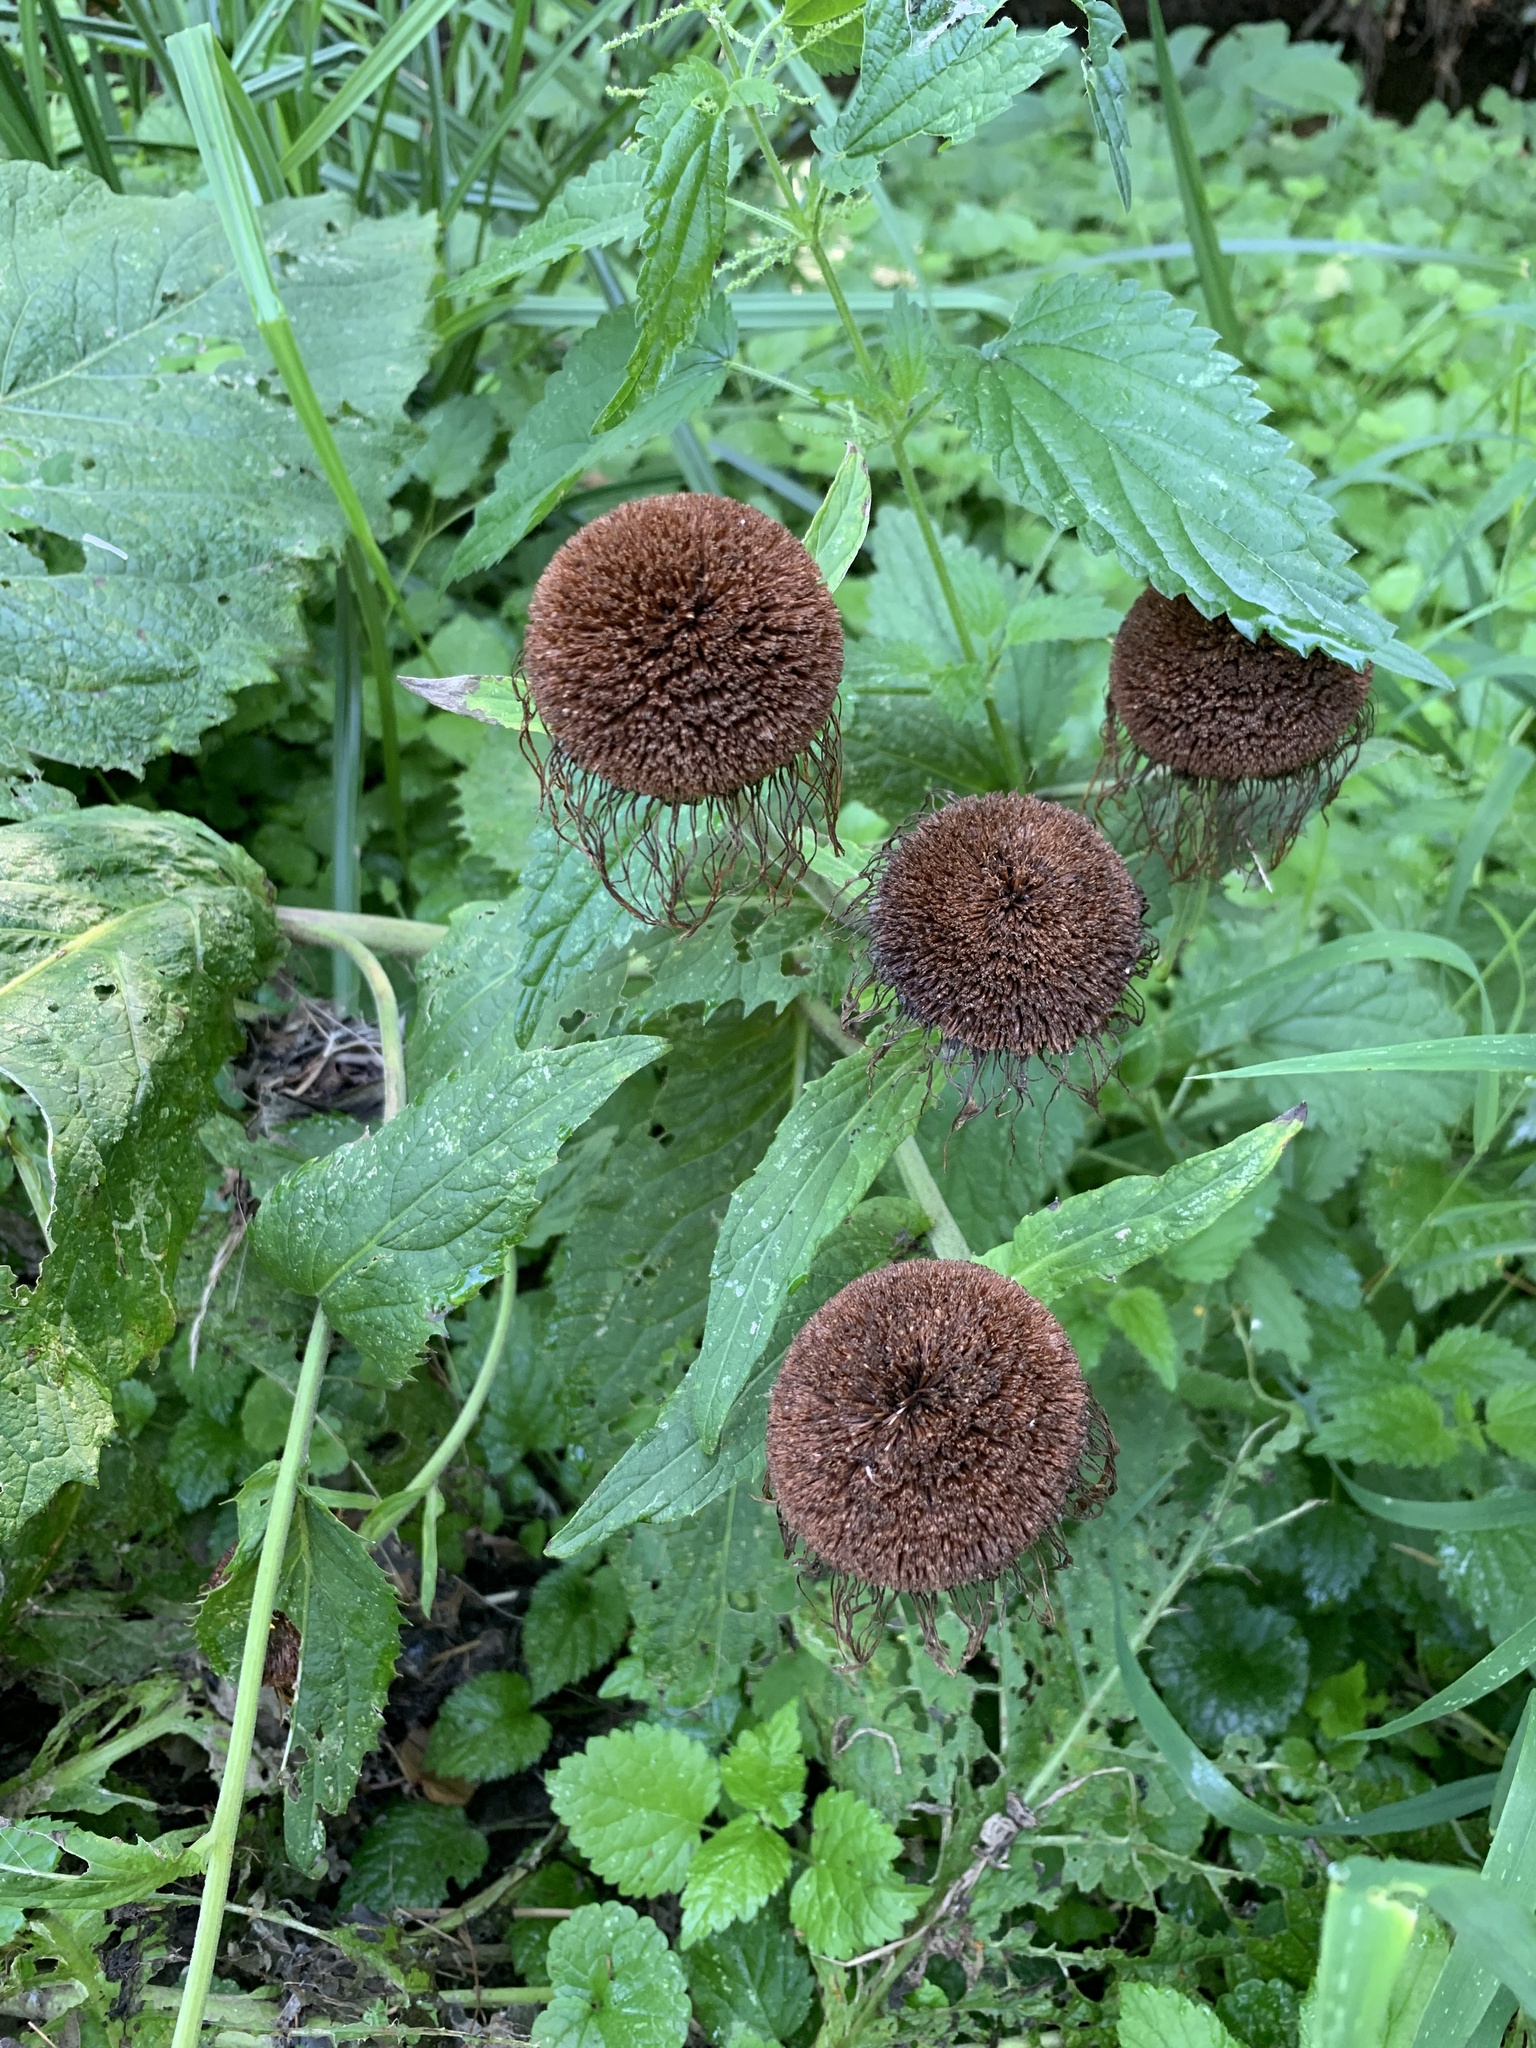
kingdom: Plantae
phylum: Tracheophyta
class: Magnoliopsida
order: Asterales
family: Asteraceae
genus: Telekia
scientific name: Telekia speciosa
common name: Yellow oxeye
